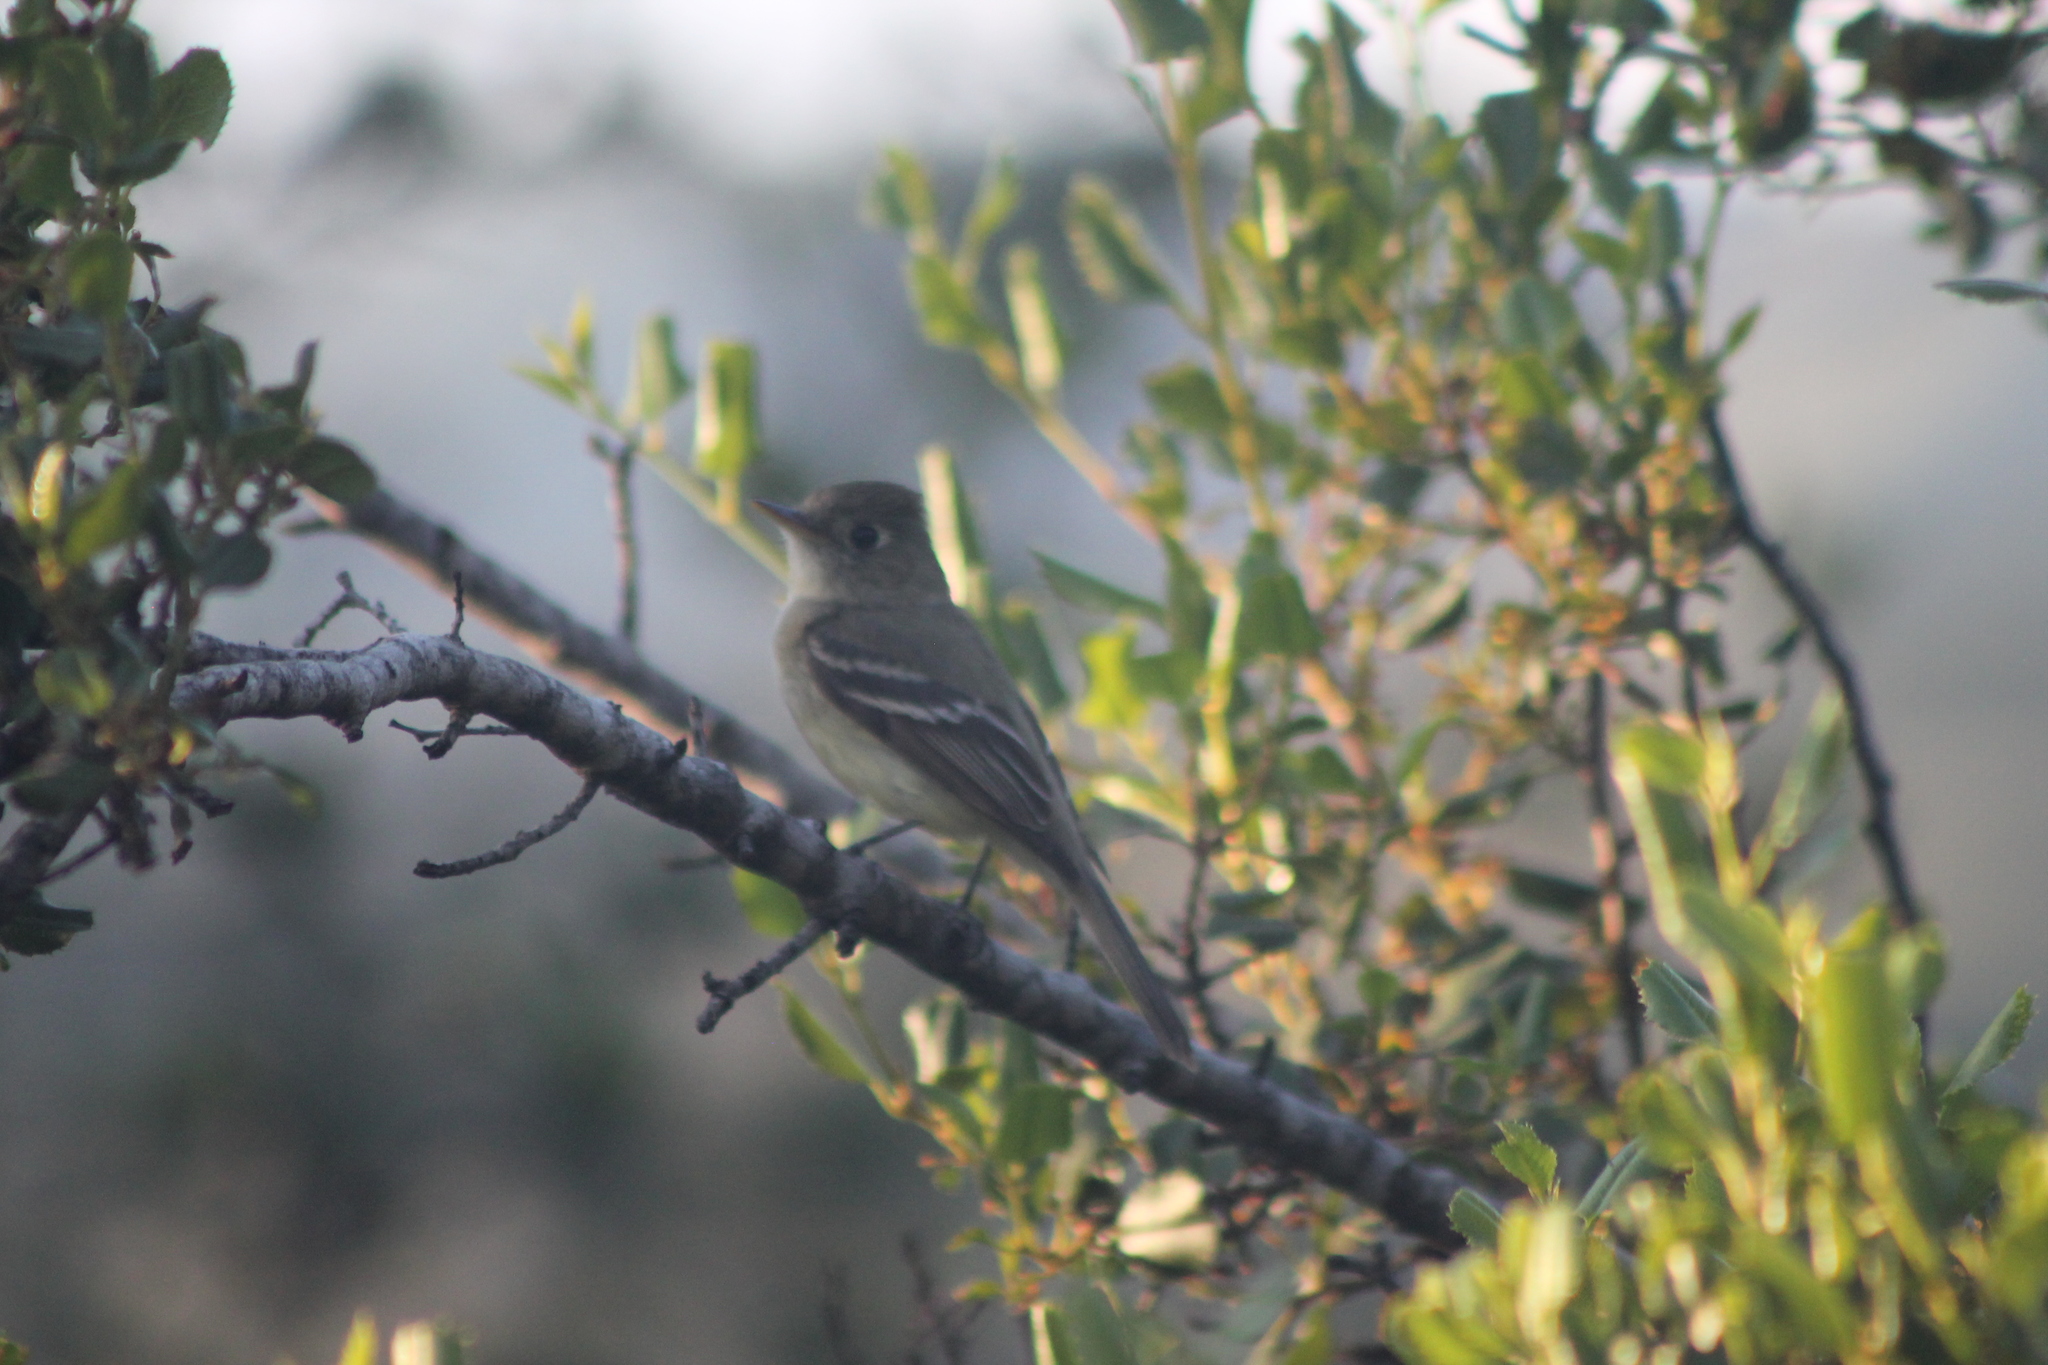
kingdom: Animalia
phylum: Chordata
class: Aves
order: Passeriformes
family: Tyrannidae
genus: Empidonax
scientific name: Empidonax difficilis
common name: Pacific-slope flycatcher
